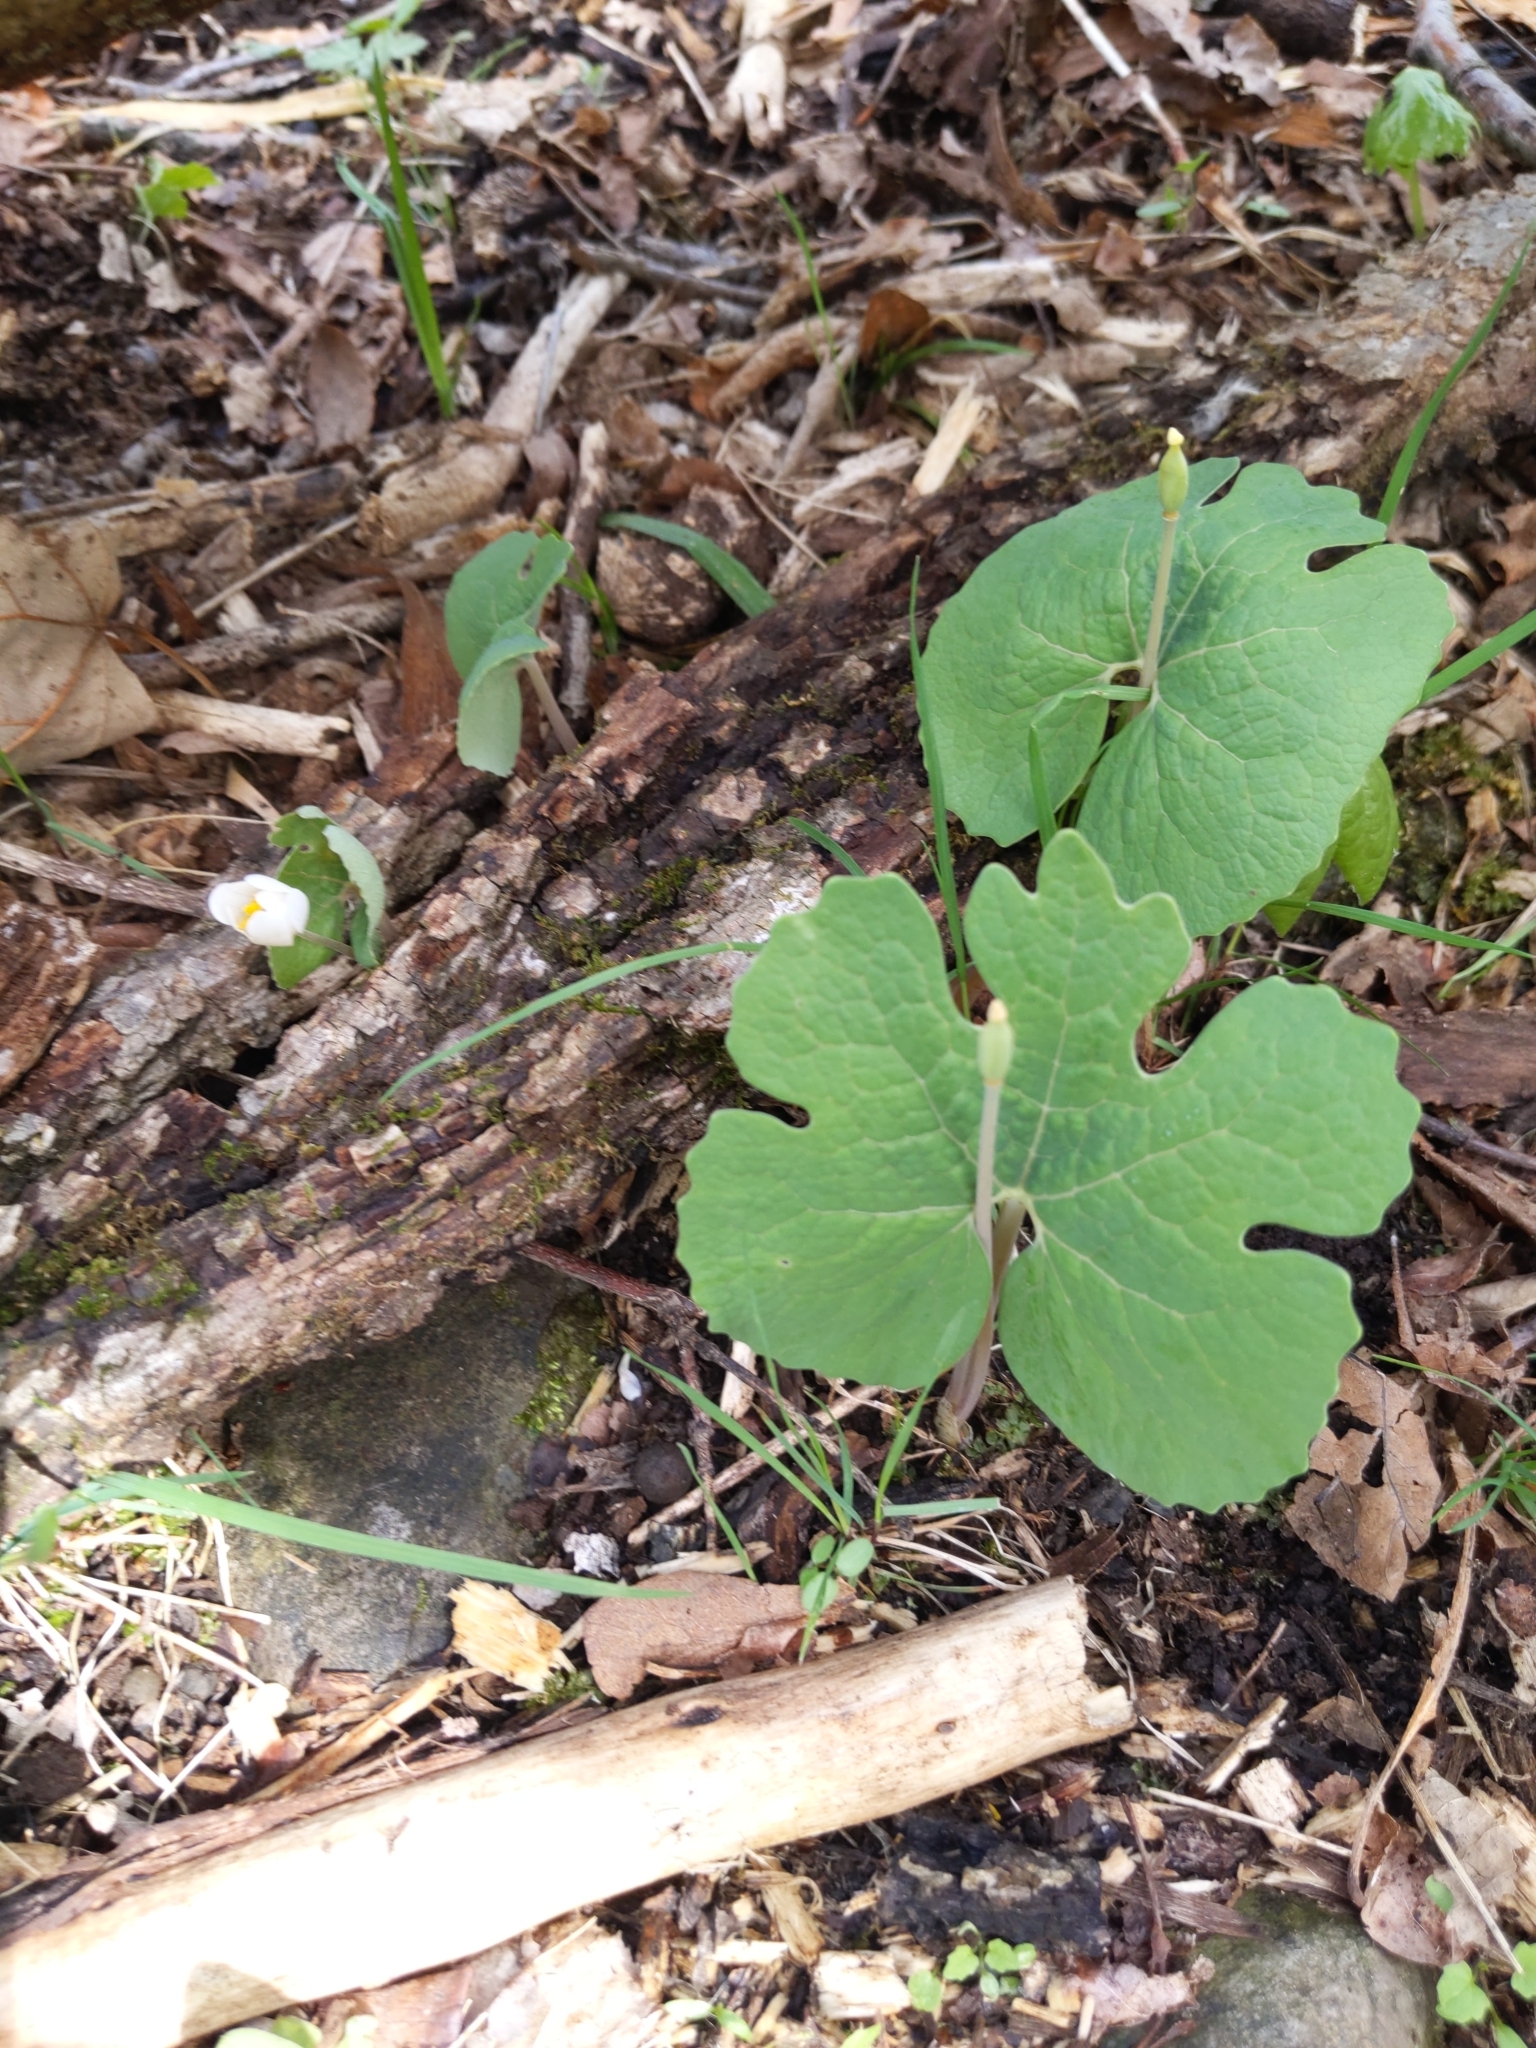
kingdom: Plantae
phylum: Tracheophyta
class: Magnoliopsida
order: Ranunculales
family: Papaveraceae
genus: Sanguinaria
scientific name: Sanguinaria canadensis
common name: Bloodroot
